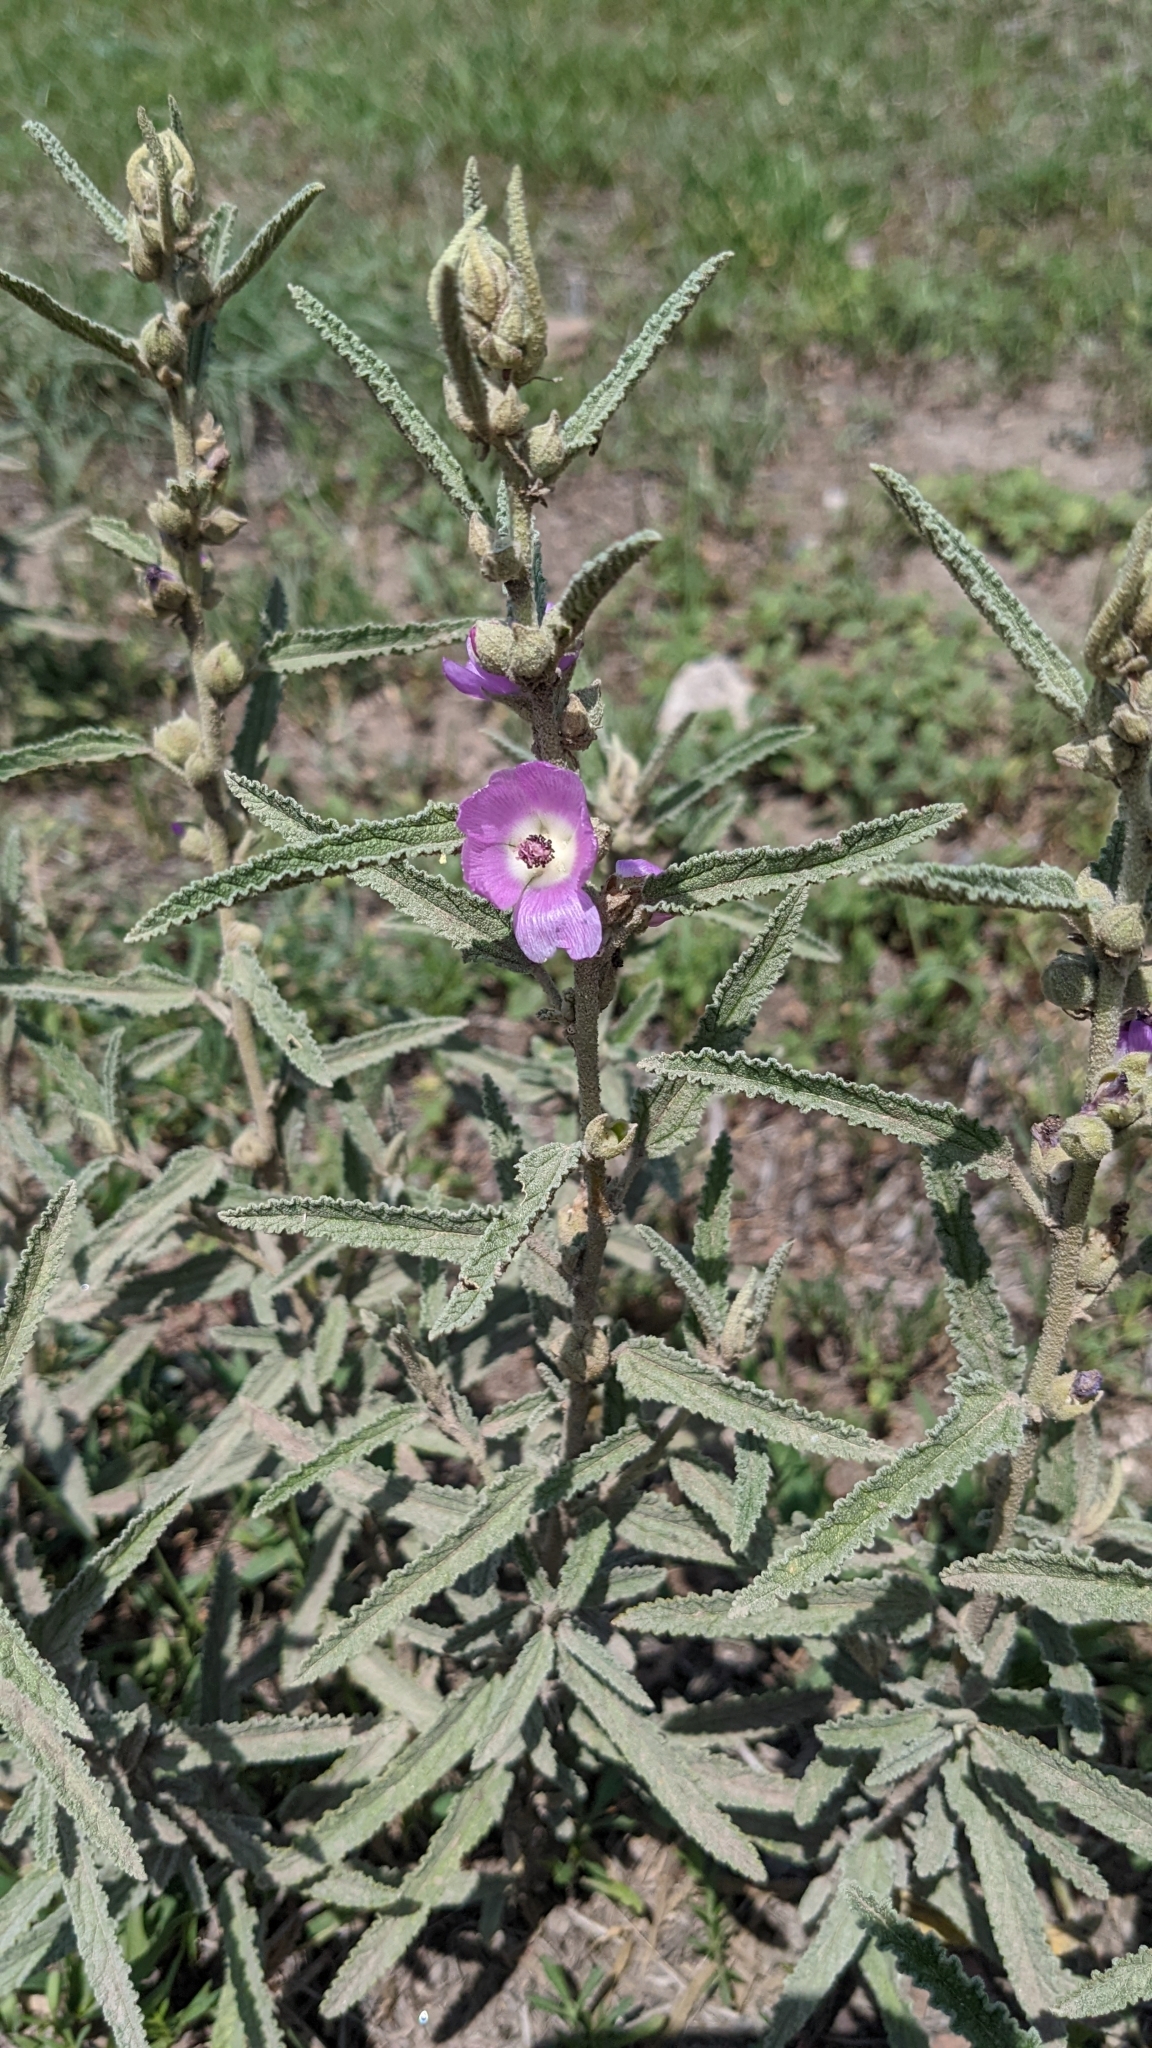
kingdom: Plantae
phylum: Tracheophyta
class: Magnoliopsida
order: Malvales
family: Malvaceae
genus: Sphaeralcea
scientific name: Sphaeralcea angustifolia
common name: Copper globe-mallow
